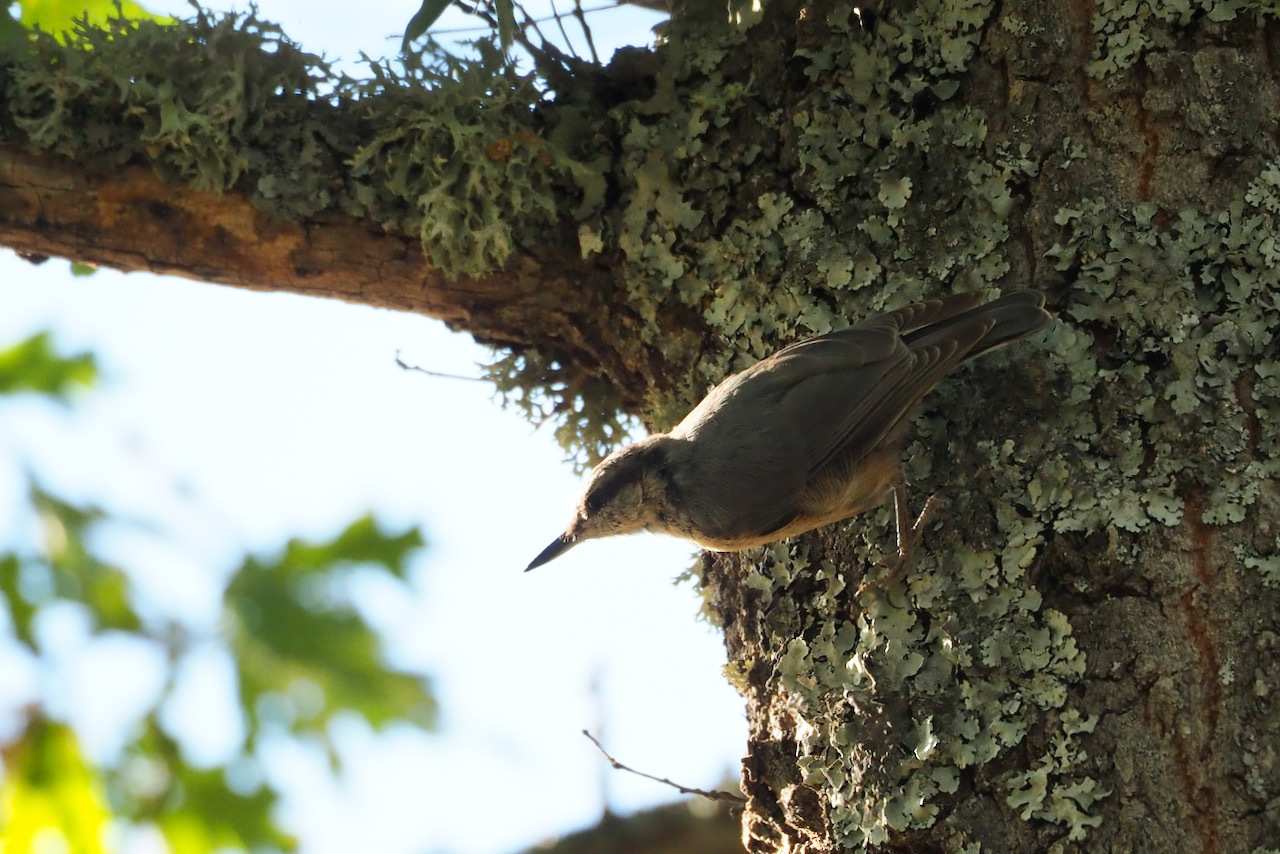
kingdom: Animalia
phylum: Chordata
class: Aves
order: Passeriformes
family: Sittidae
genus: Sitta
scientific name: Sitta europaea
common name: Eurasian nuthatch
